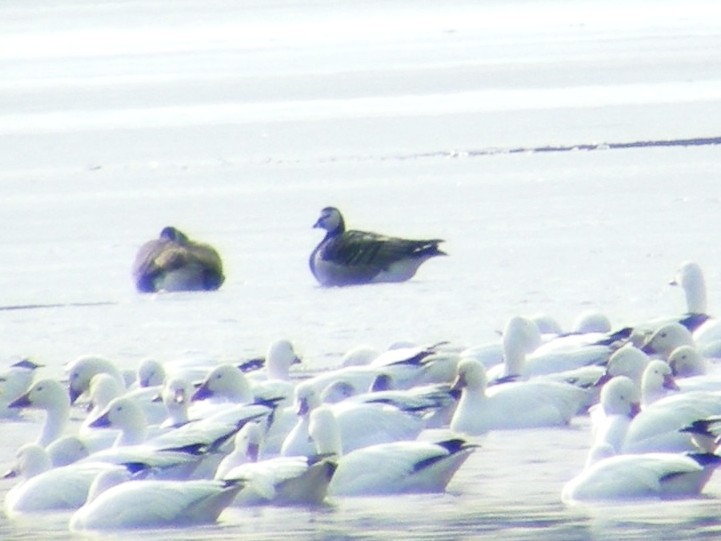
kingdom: Animalia
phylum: Chordata
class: Aves
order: Anseriformes
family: Anatidae
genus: Branta
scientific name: Branta leucopsis
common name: Barnacle goose
